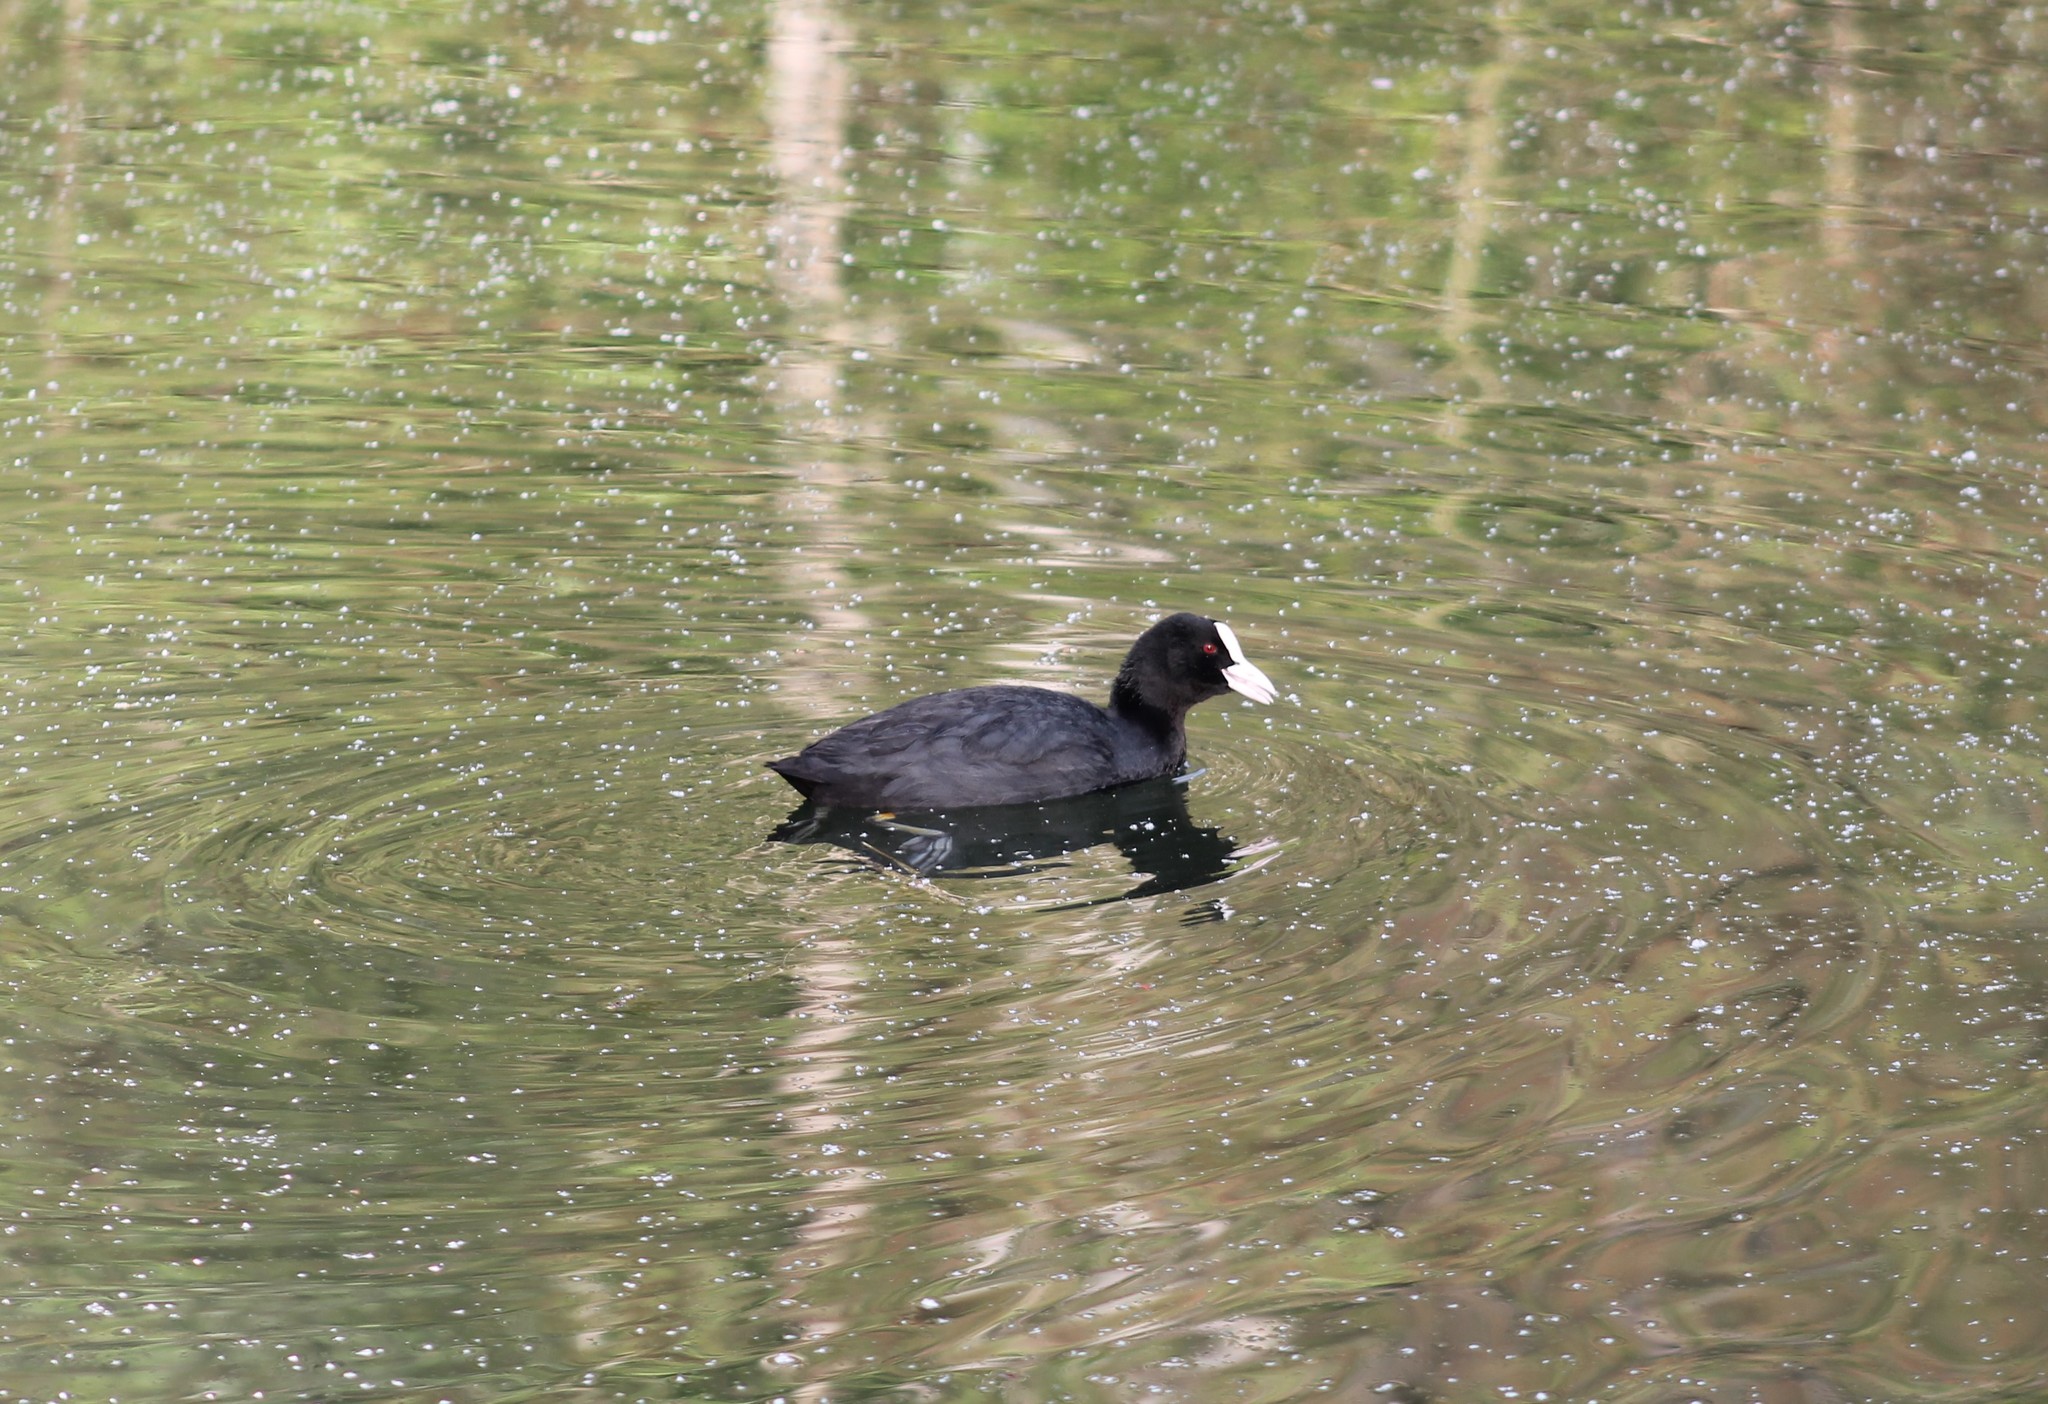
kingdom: Animalia
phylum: Chordata
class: Aves
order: Gruiformes
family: Rallidae
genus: Fulica
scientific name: Fulica atra
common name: Eurasian coot
